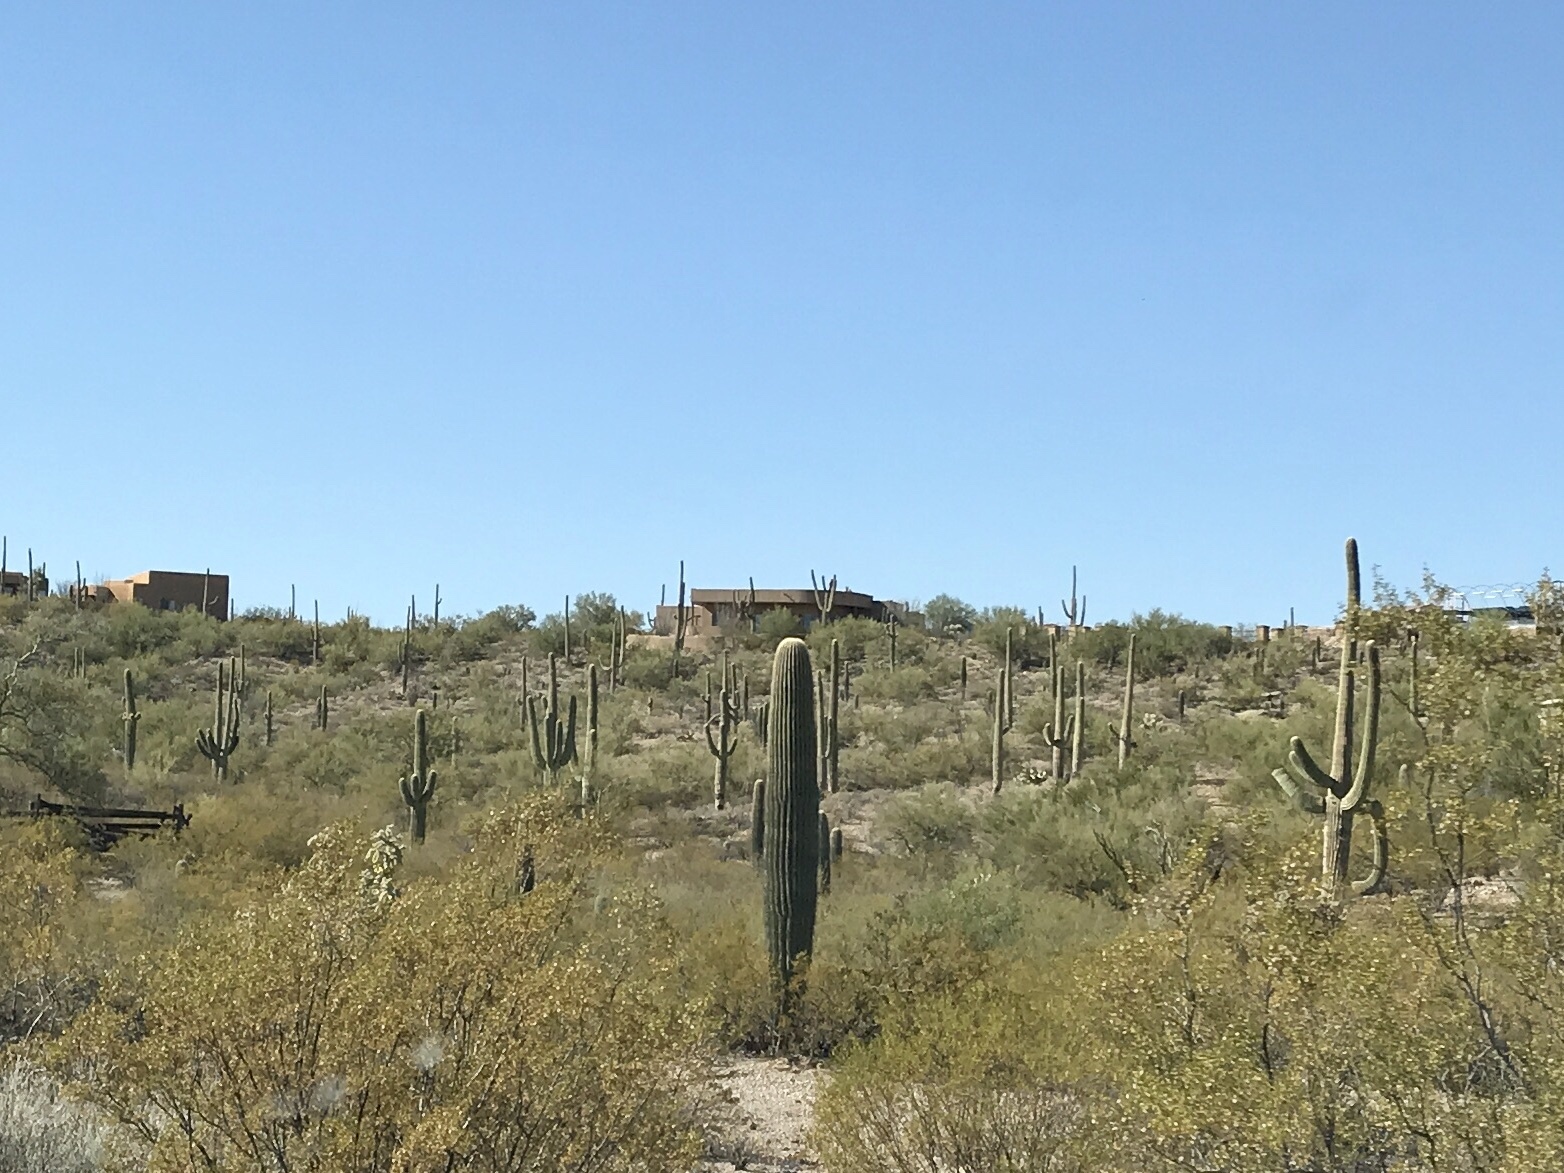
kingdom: Plantae
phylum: Tracheophyta
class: Magnoliopsida
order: Caryophyllales
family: Cactaceae
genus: Carnegiea
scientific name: Carnegiea gigantea
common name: Saguaro
